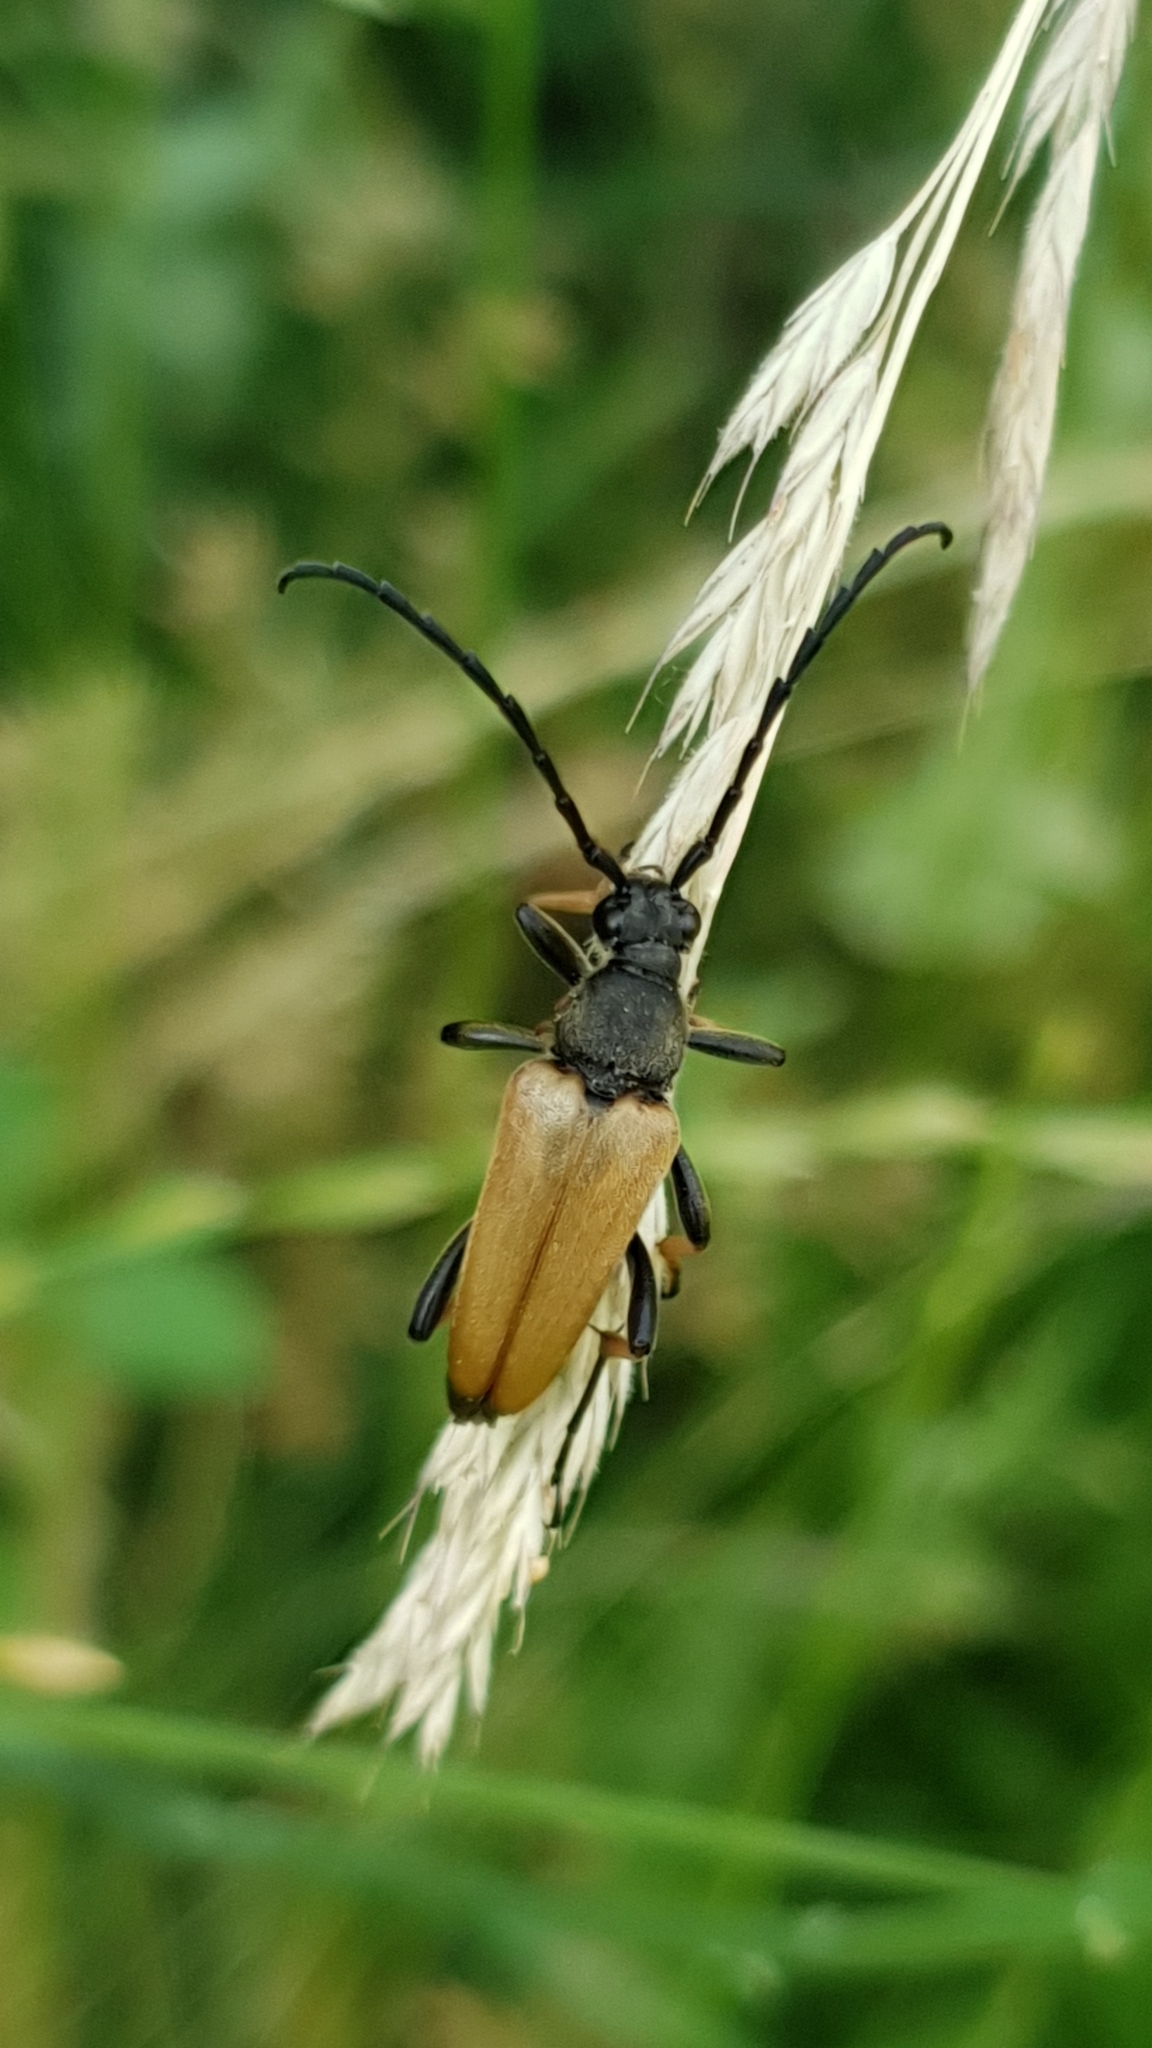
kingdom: Animalia
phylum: Arthropoda
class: Insecta
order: Coleoptera
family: Cerambycidae
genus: Stictoleptura
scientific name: Stictoleptura rubra
